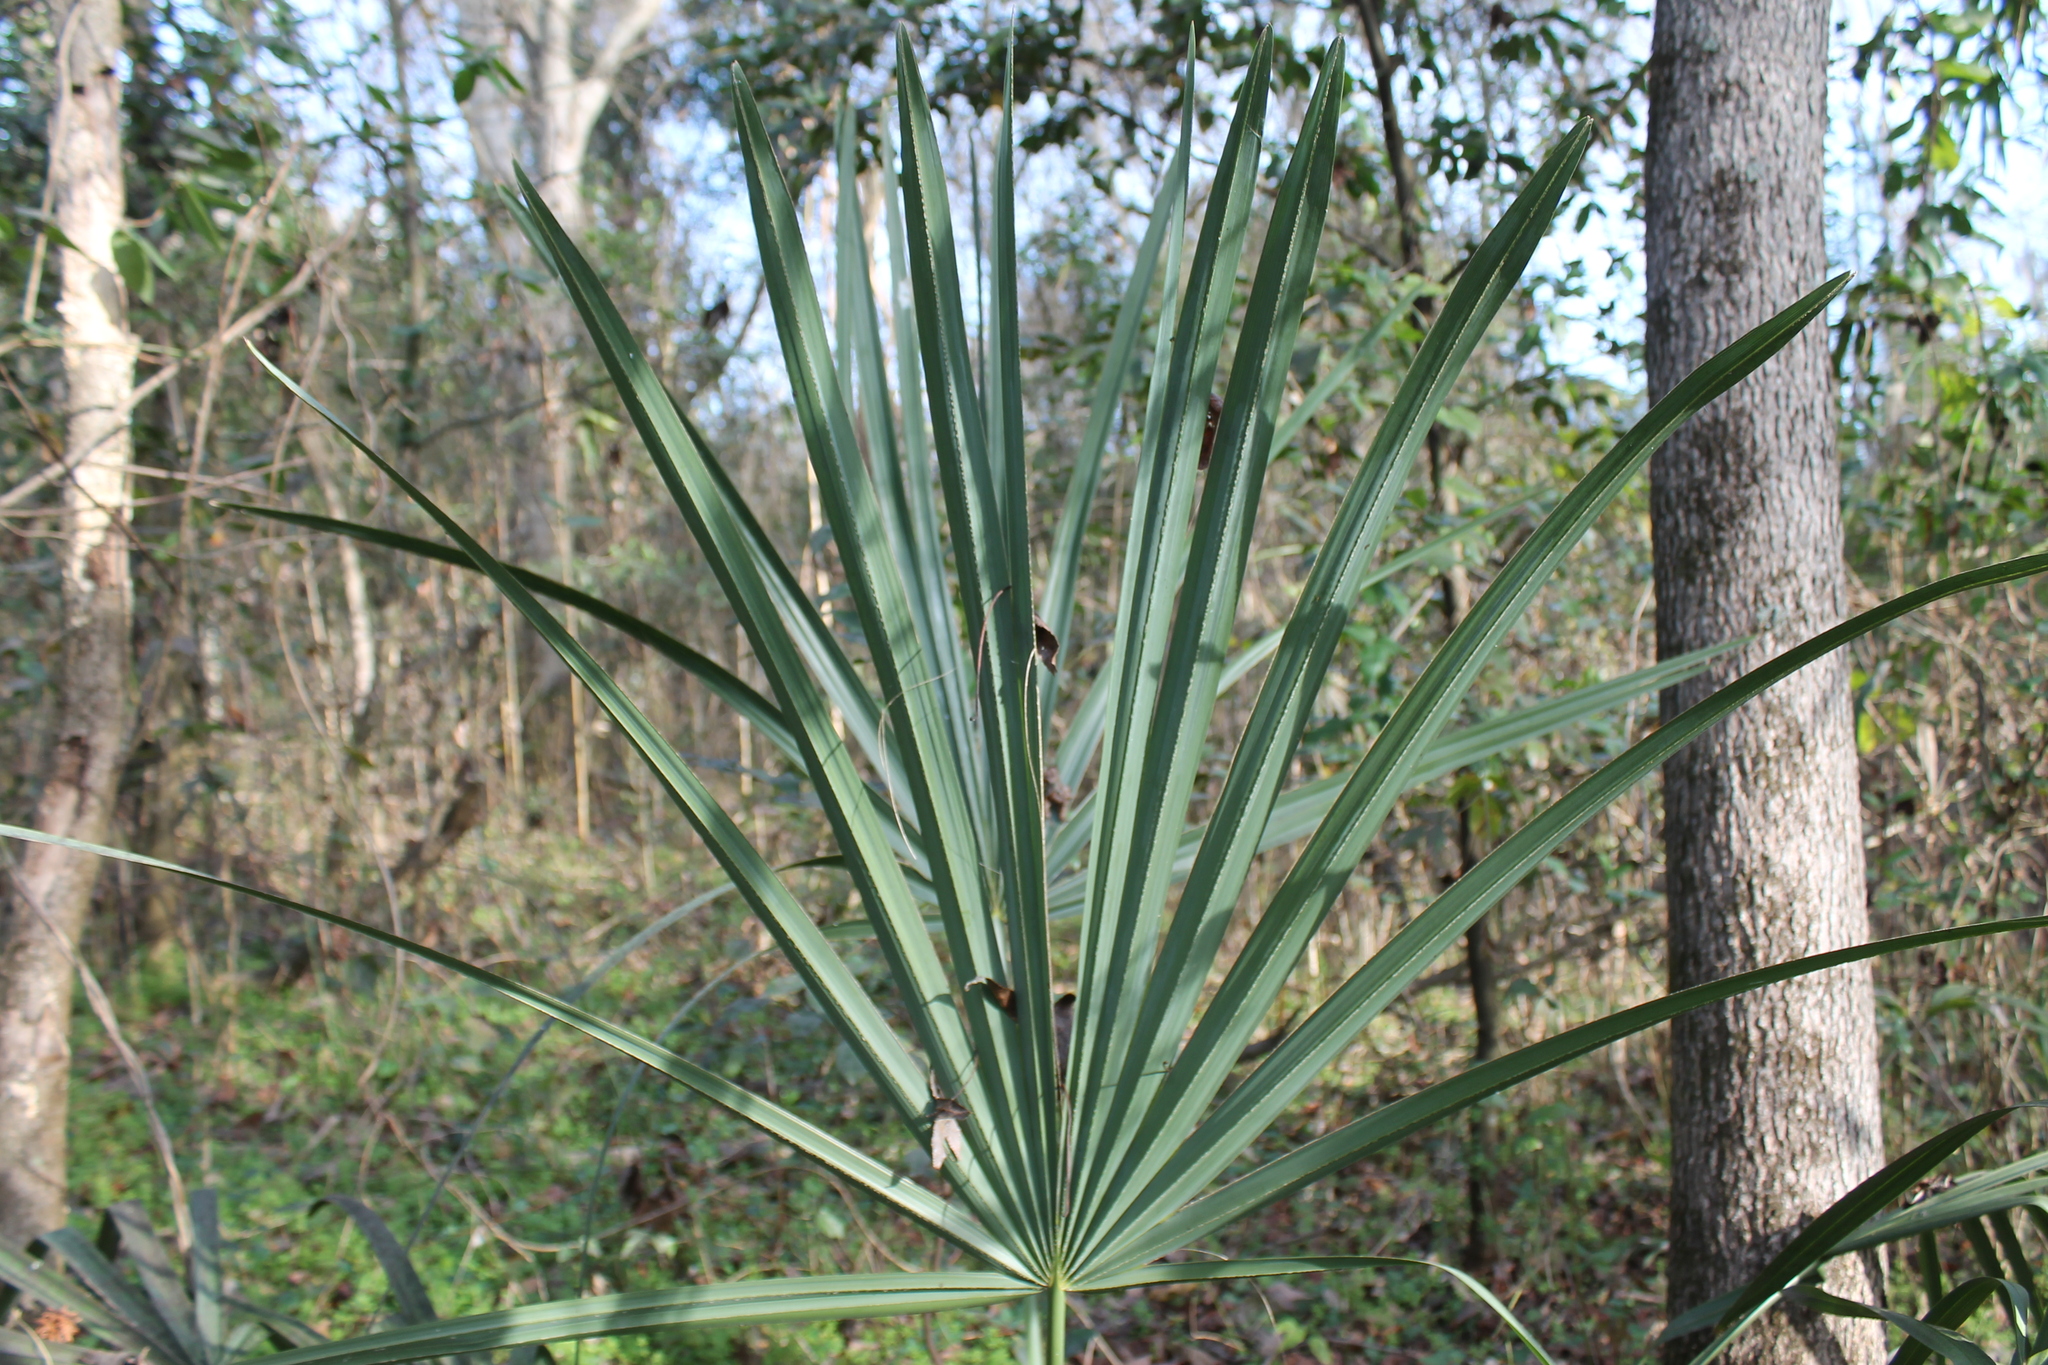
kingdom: Plantae
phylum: Tracheophyta
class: Liliopsida
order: Arecales
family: Arecaceae
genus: Sabal
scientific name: Sabal minor
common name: Dwarf palmetto
